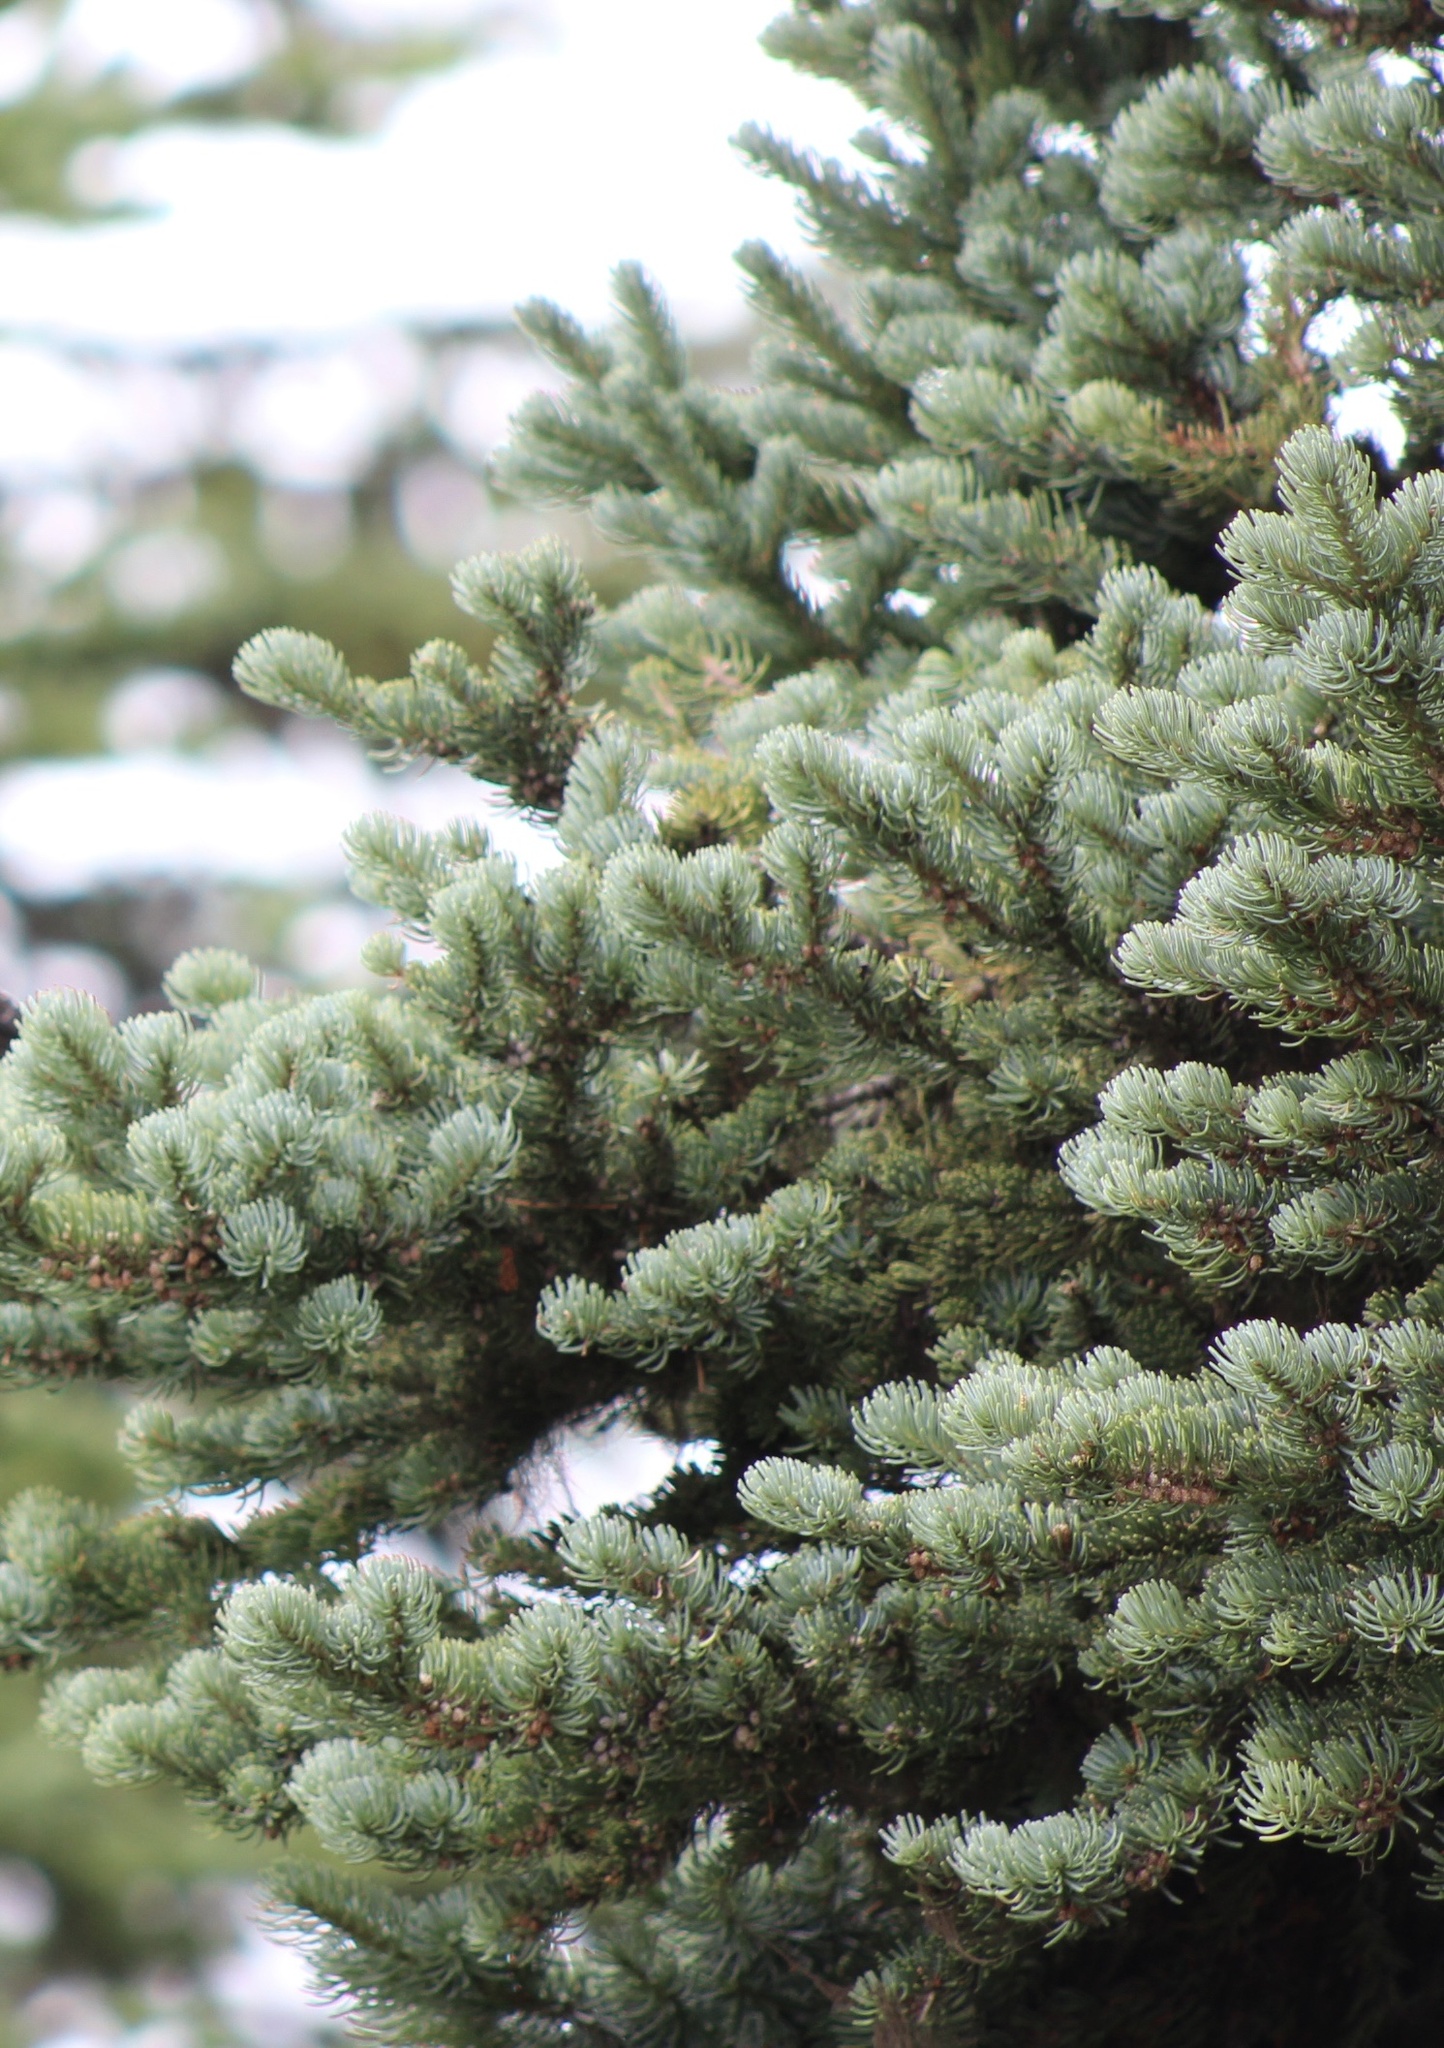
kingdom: Plantae
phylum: Tracheophyta
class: Pinopsida
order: Pinales
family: Pinaceae
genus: Abies
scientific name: Abies lasiocarpa
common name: Subalpine fir
